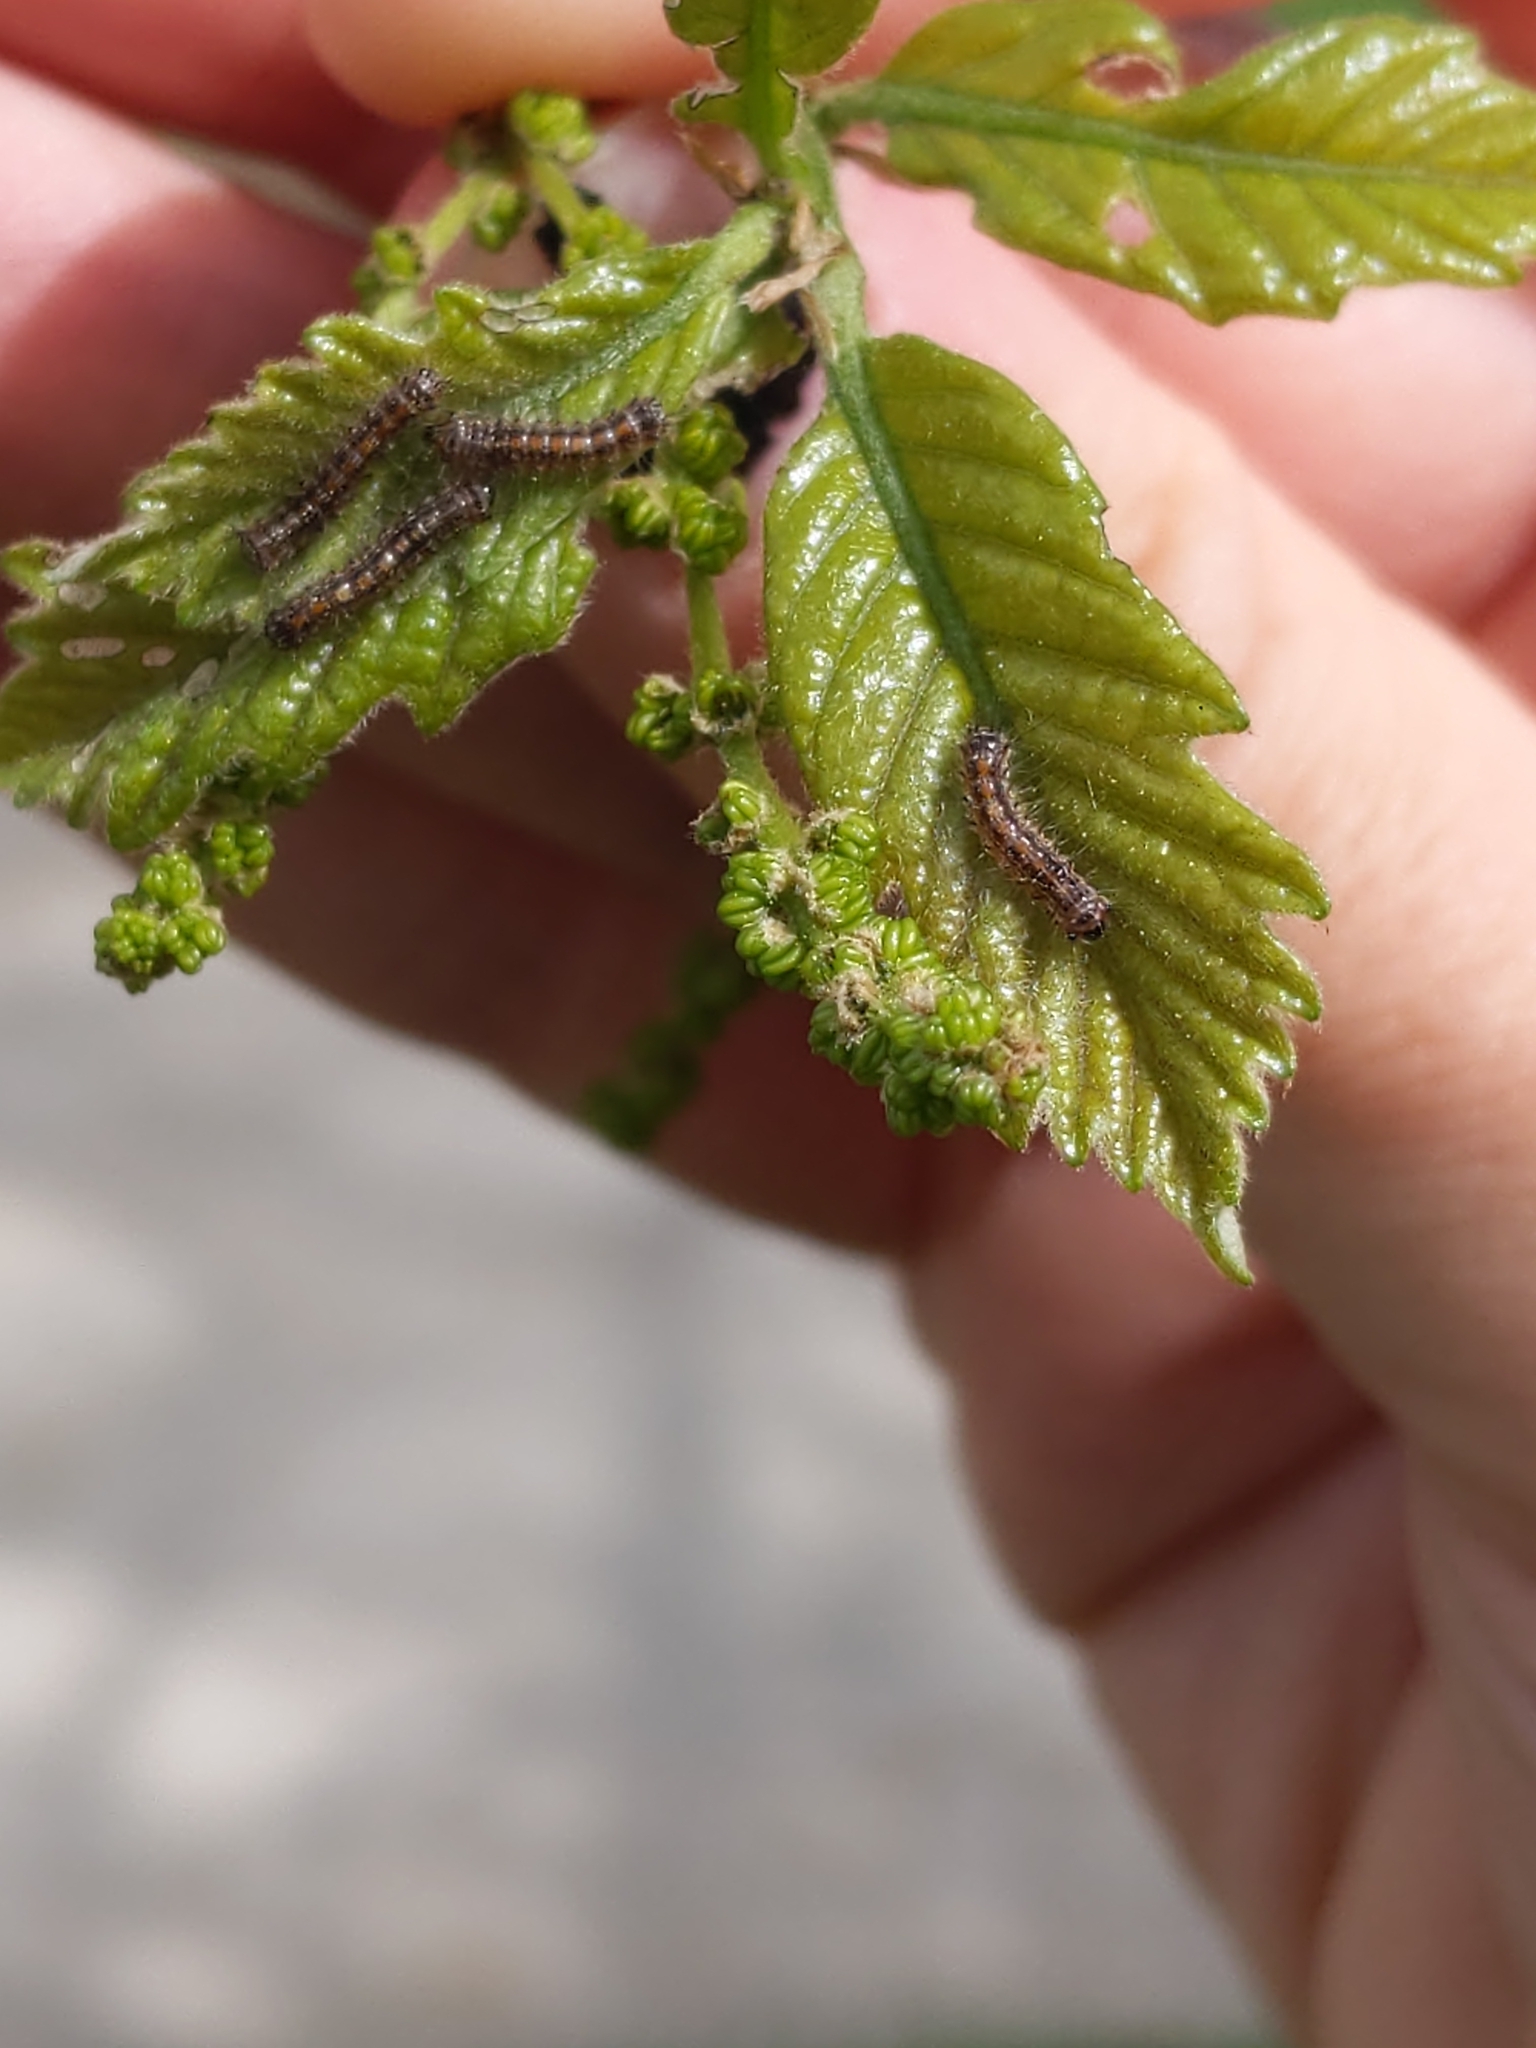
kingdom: Animalia
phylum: Arthropoda
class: Insecta
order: Lepidoptera
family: Erebidae
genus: Lymantria
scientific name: Lymantria dispar
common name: Gypsy moth
